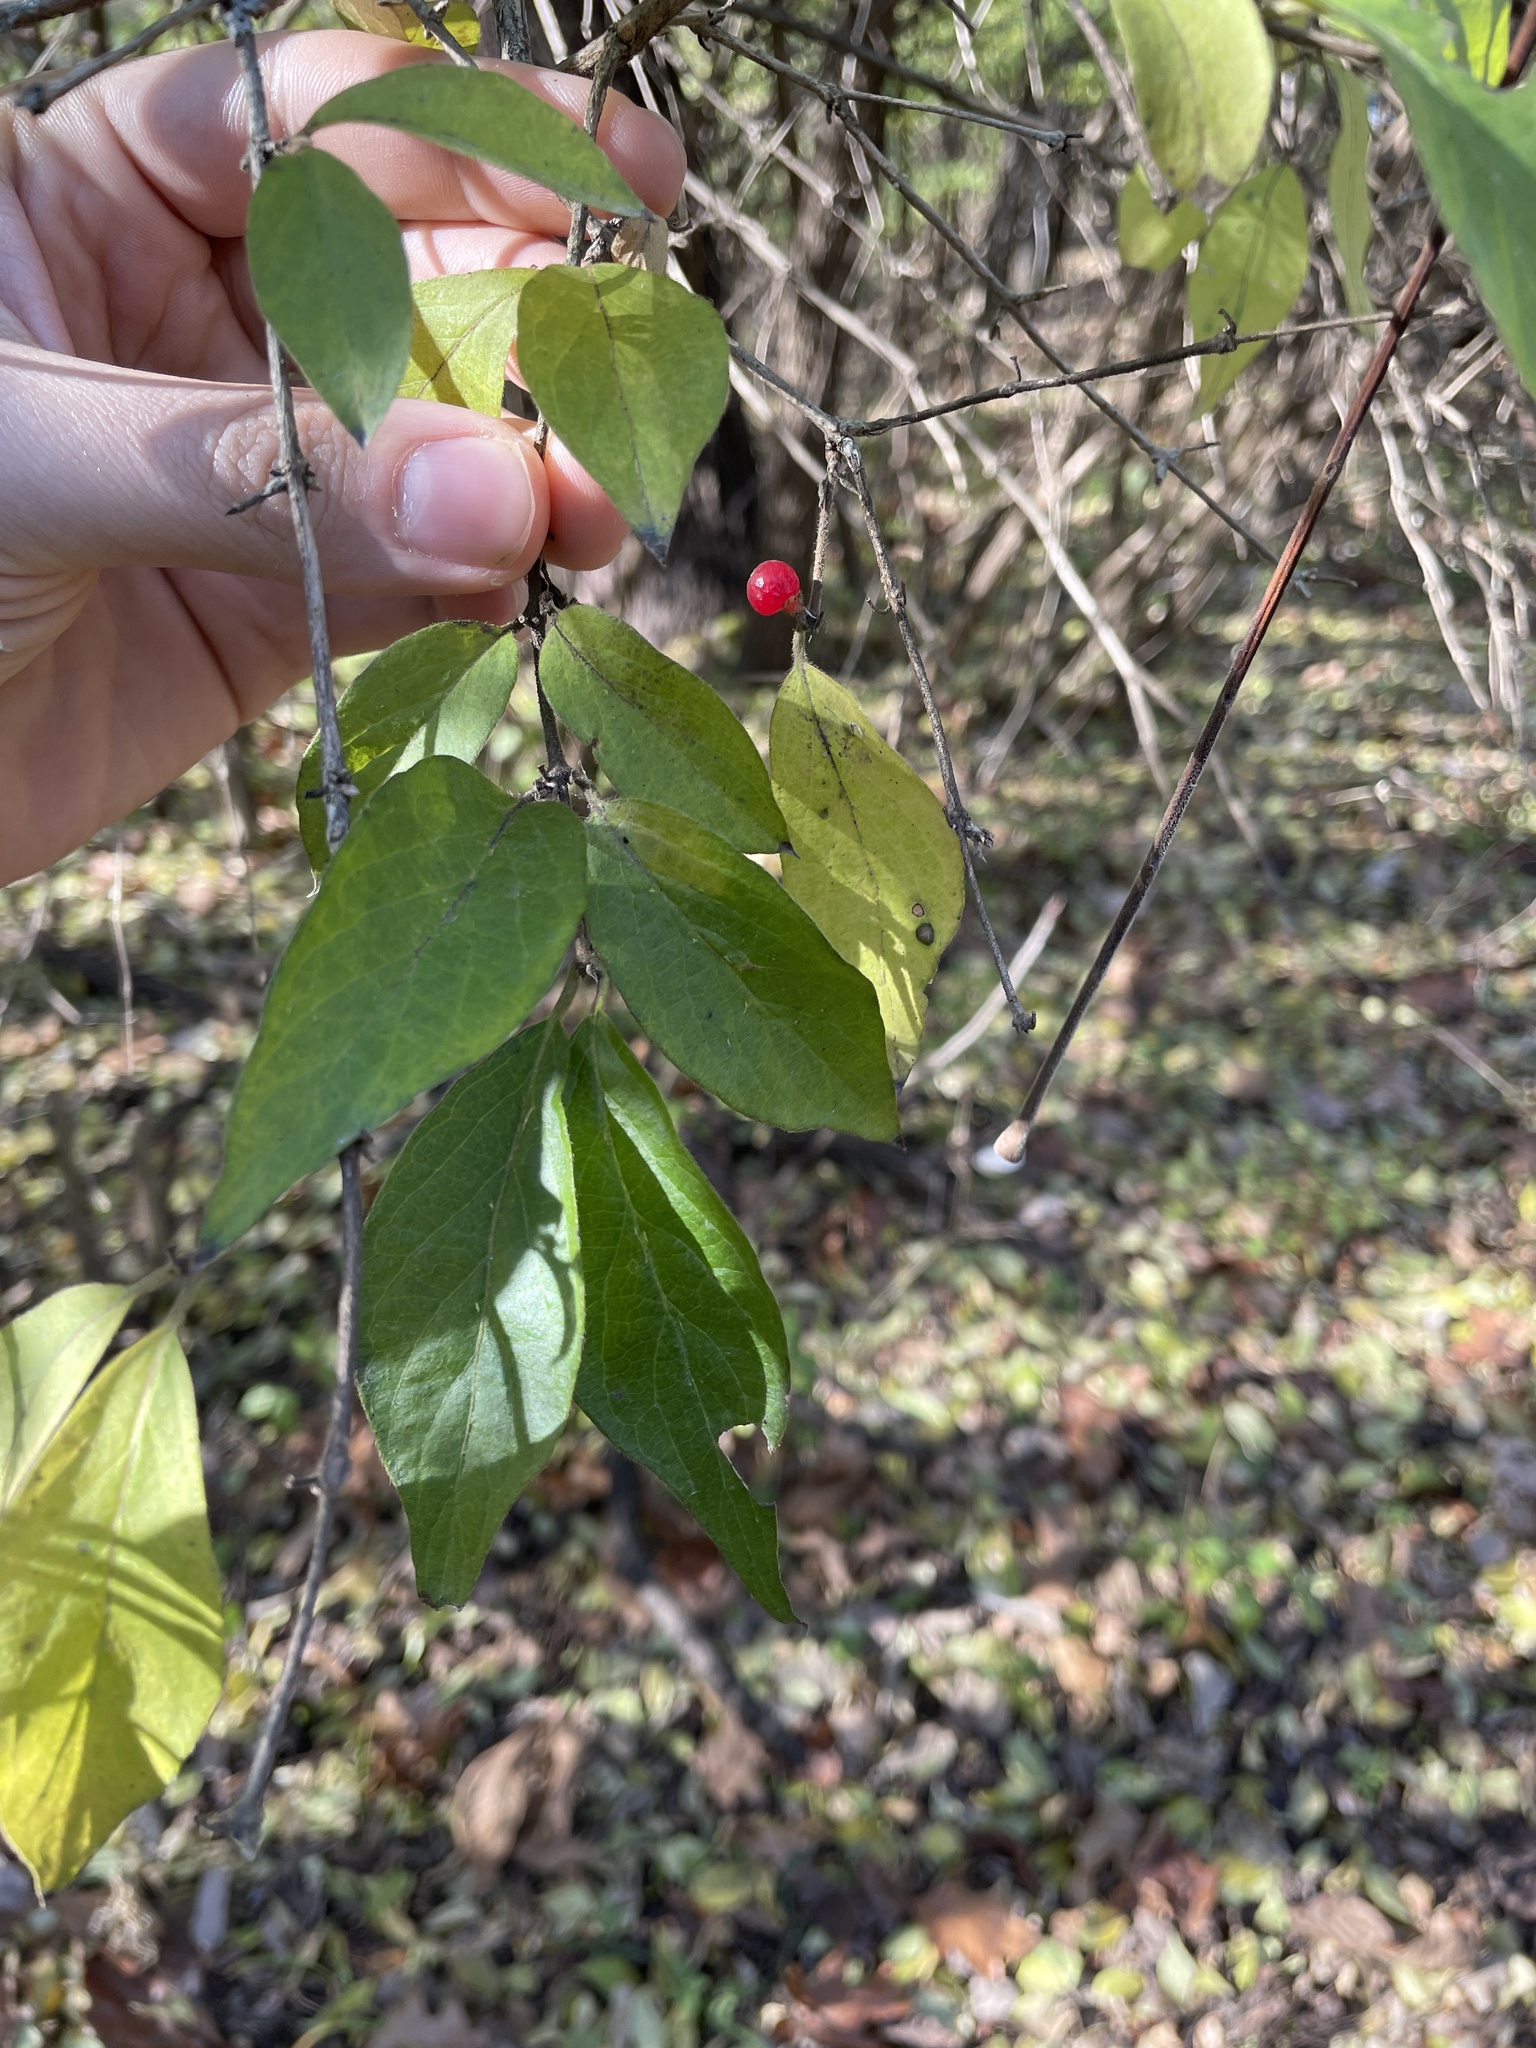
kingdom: Plantae
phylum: Tracheophyta
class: Magnoliopsida
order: Dipsacales
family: Caprifoliaceae
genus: Lonicera
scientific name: Lonicera maackii
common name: Amur honeysuckle
